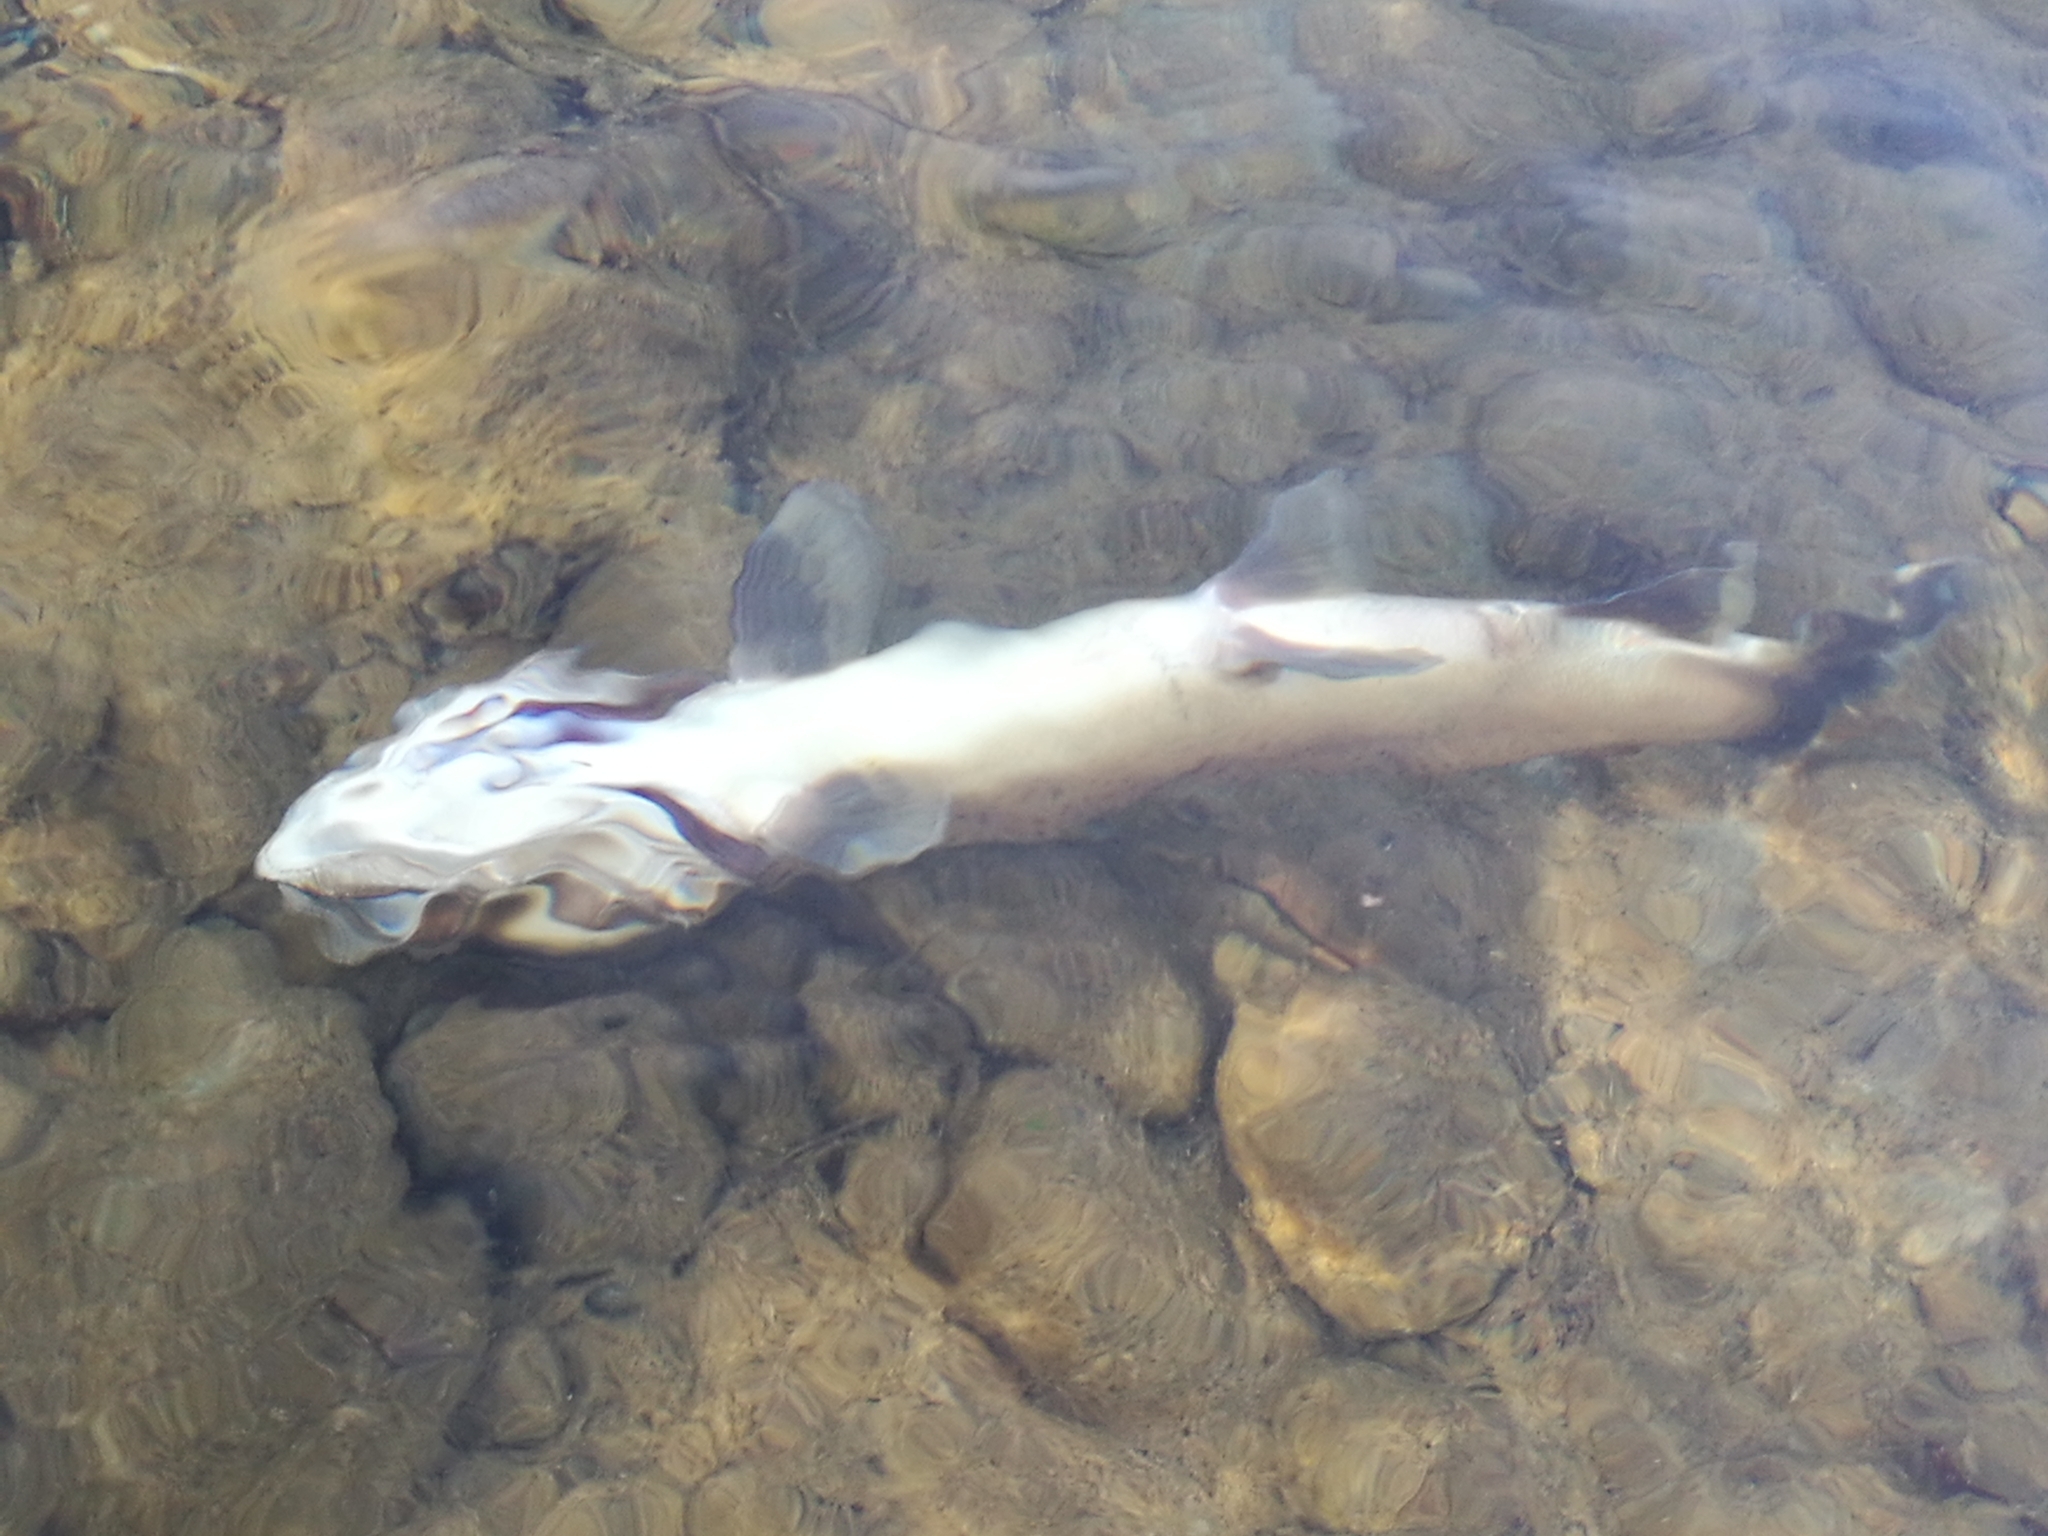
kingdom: Animalia
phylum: Chordata
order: Salmoniformes
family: Salmonidae
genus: Salmo
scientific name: Salmo trutta
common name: Brown trout
